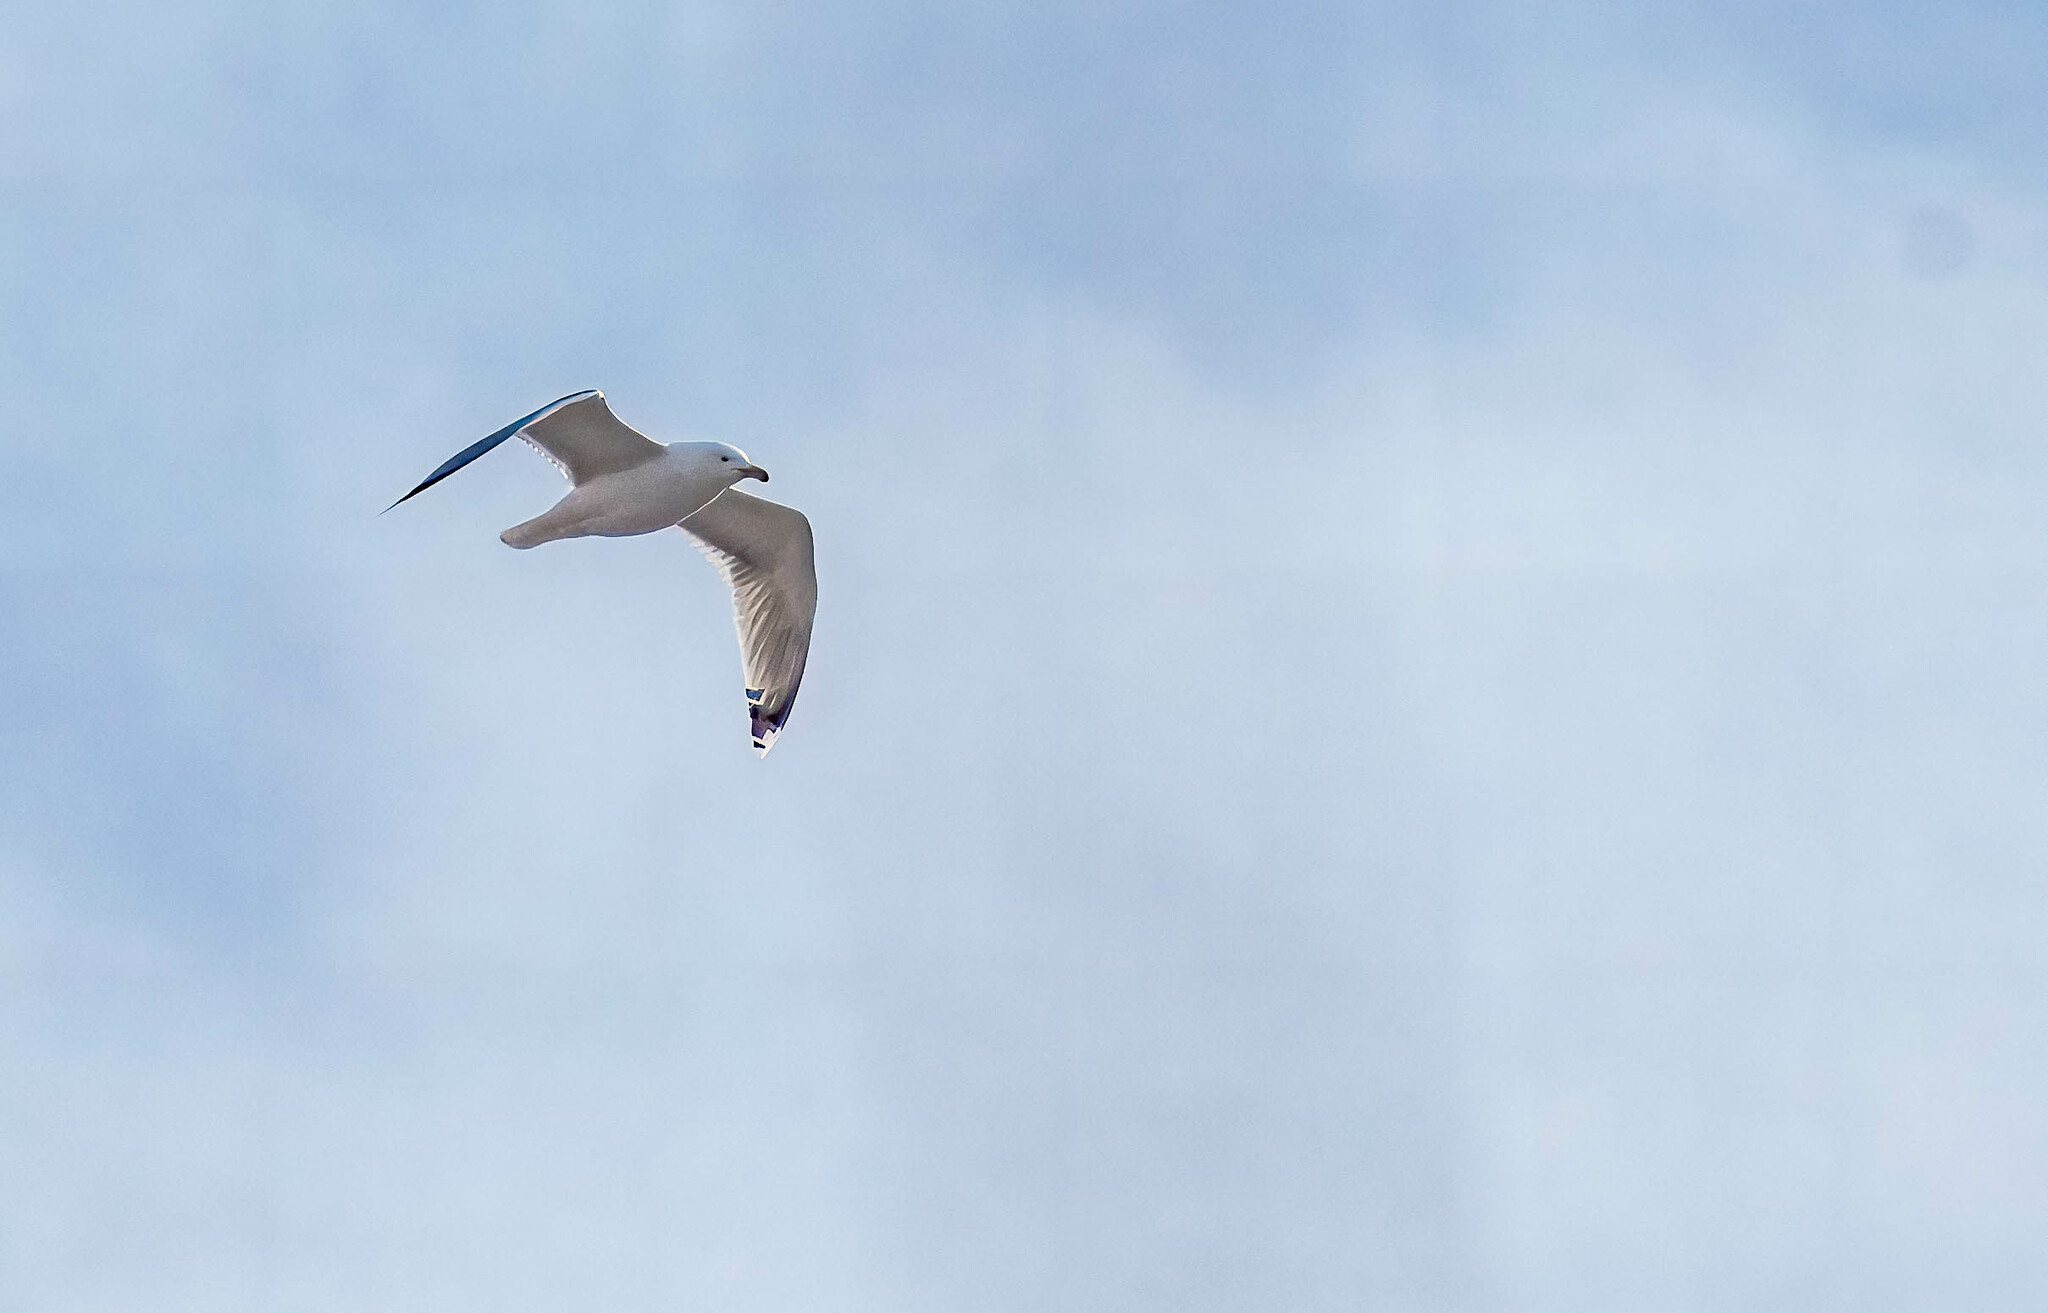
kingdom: Animalia
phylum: Chordata
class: Aves
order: Charadriiformes
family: Laridae
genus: Larus
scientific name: Larus cachinnans
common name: Caspian gull
